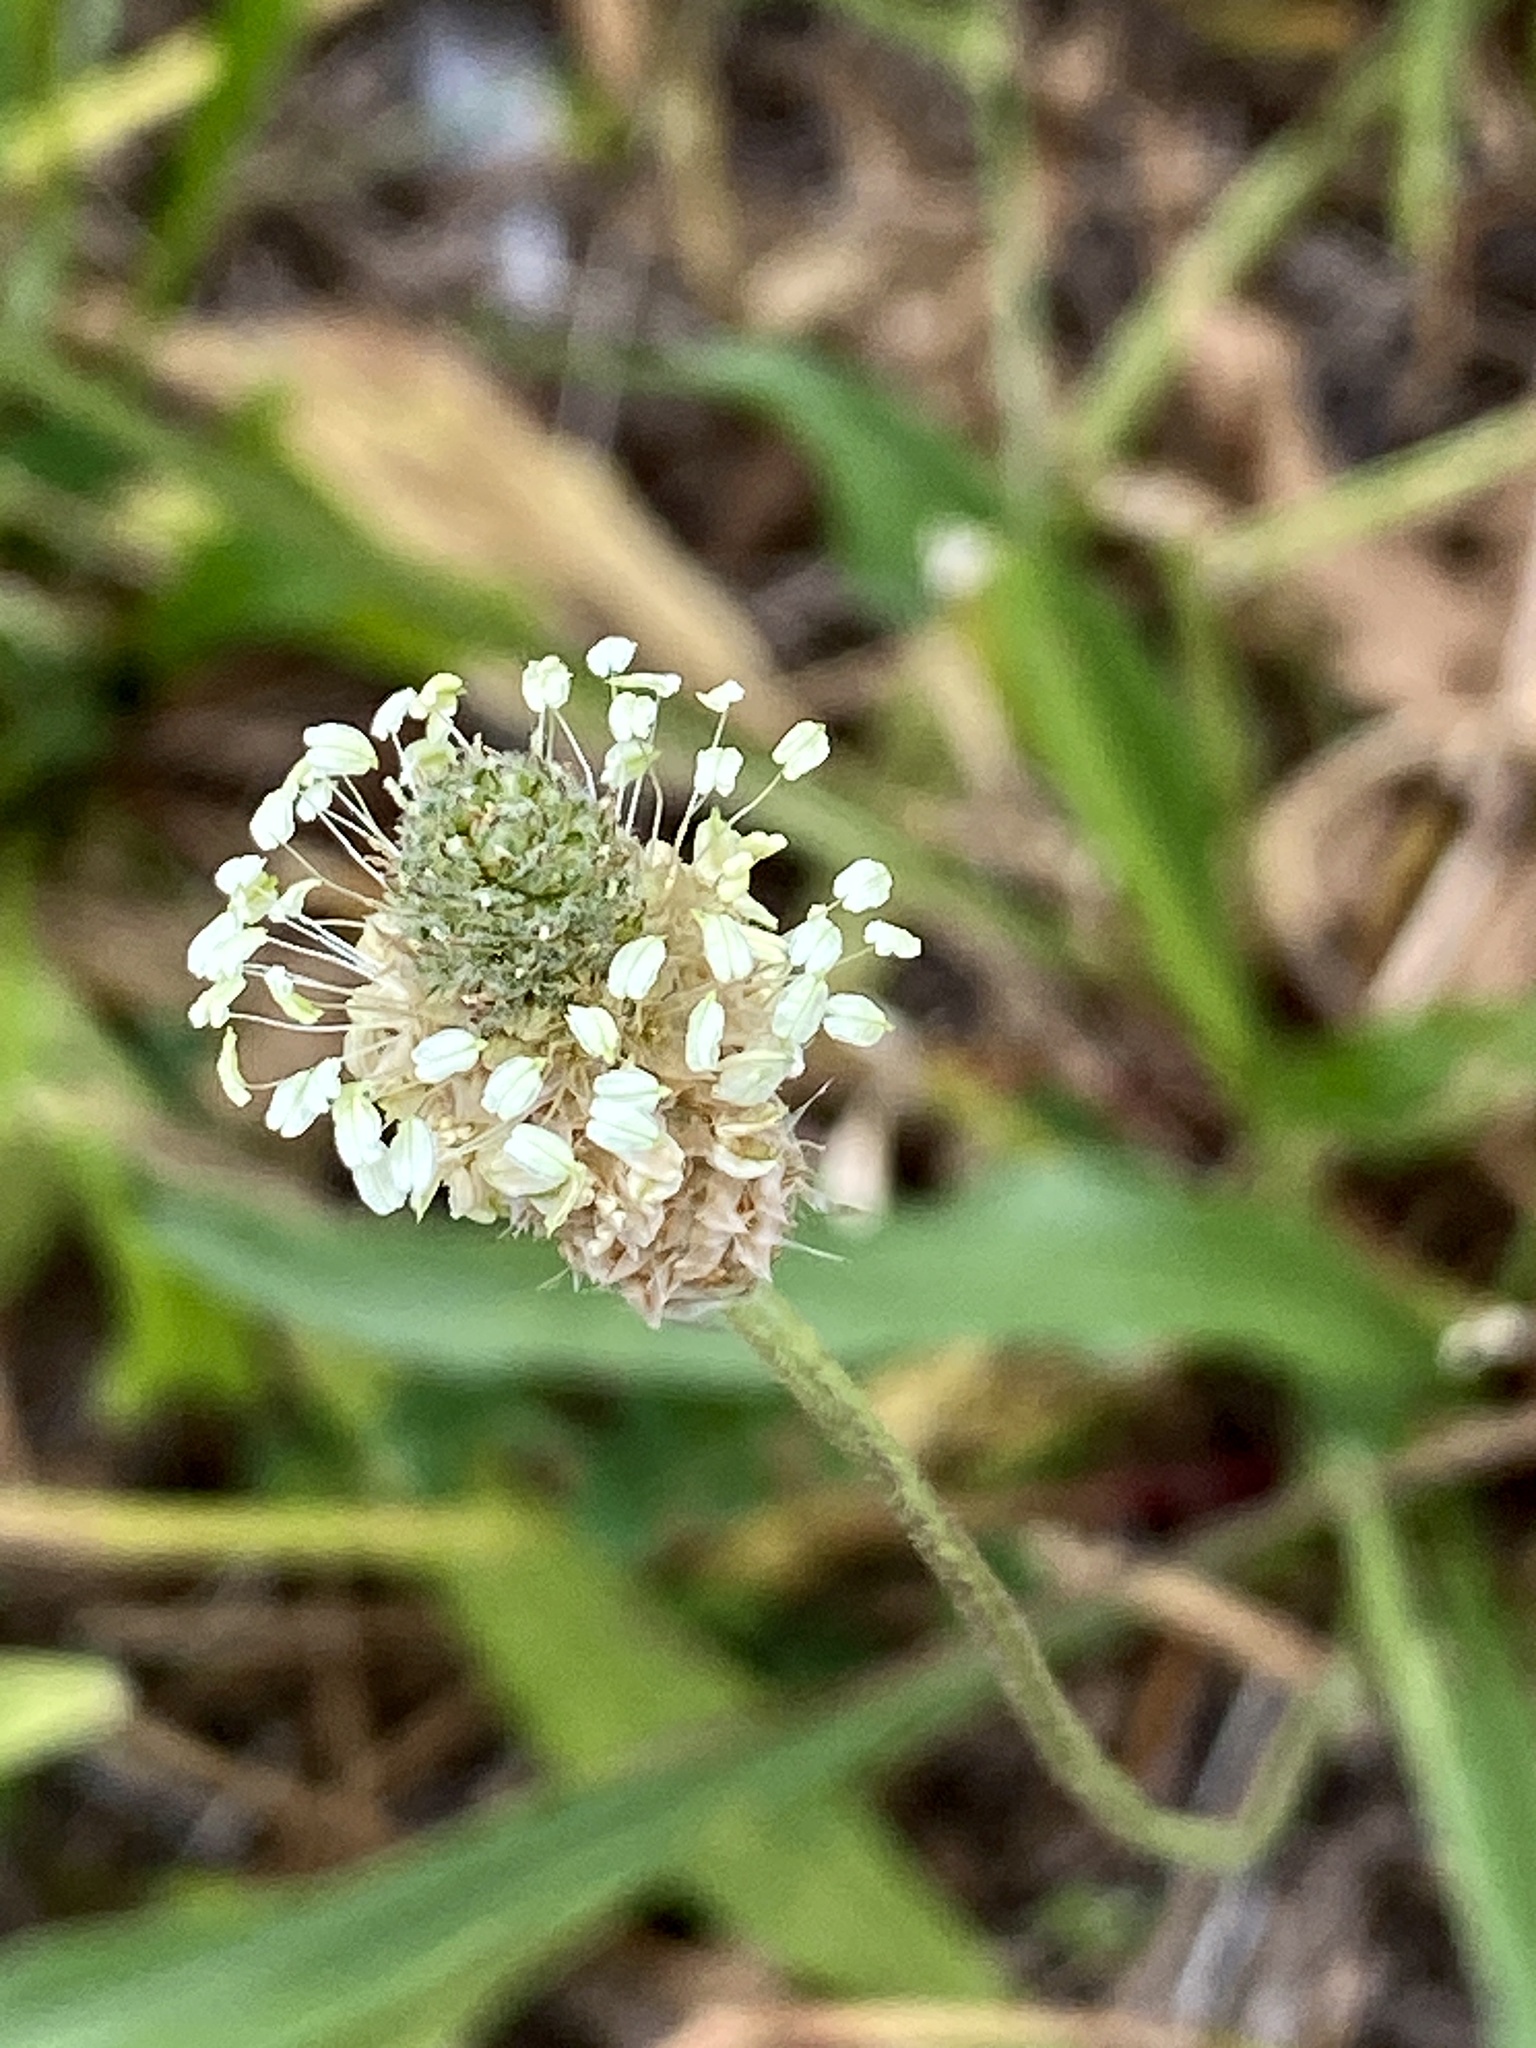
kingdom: Plantae
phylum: Tracheophyta
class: Magnoliopsida
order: Lamiales
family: Plantaginaceae
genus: Plantago
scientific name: Plantago lanceolata
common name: Ribwort plantain
